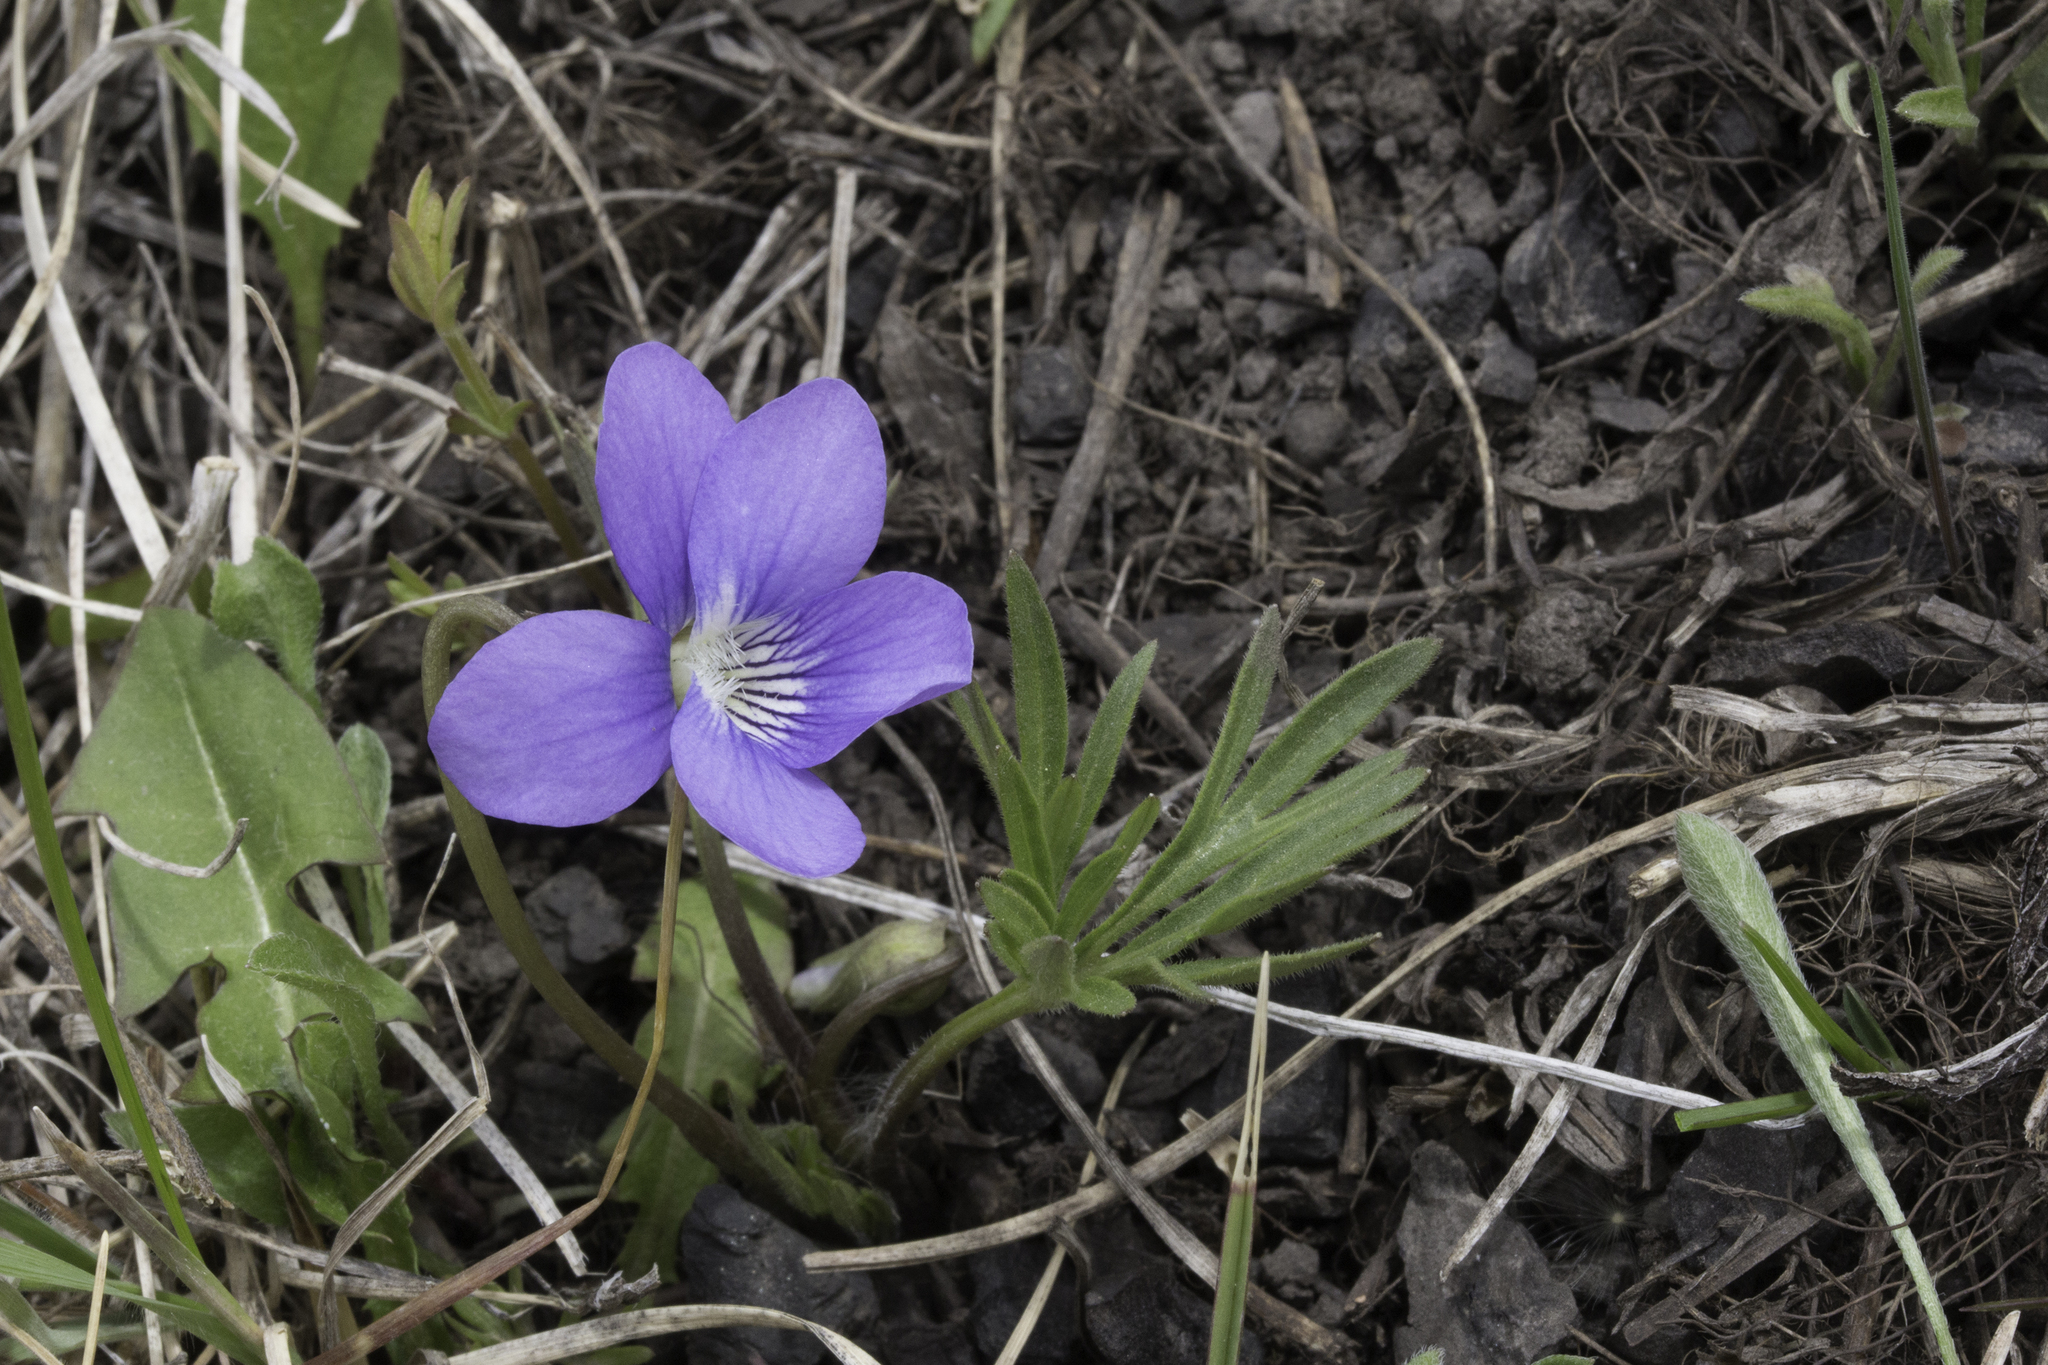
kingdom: Plantae
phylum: Tracheophyta
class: Magnoliopsida
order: Malpighiales
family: Violaceae
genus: Viola
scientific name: Viola pedatifida
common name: Prairie violet
